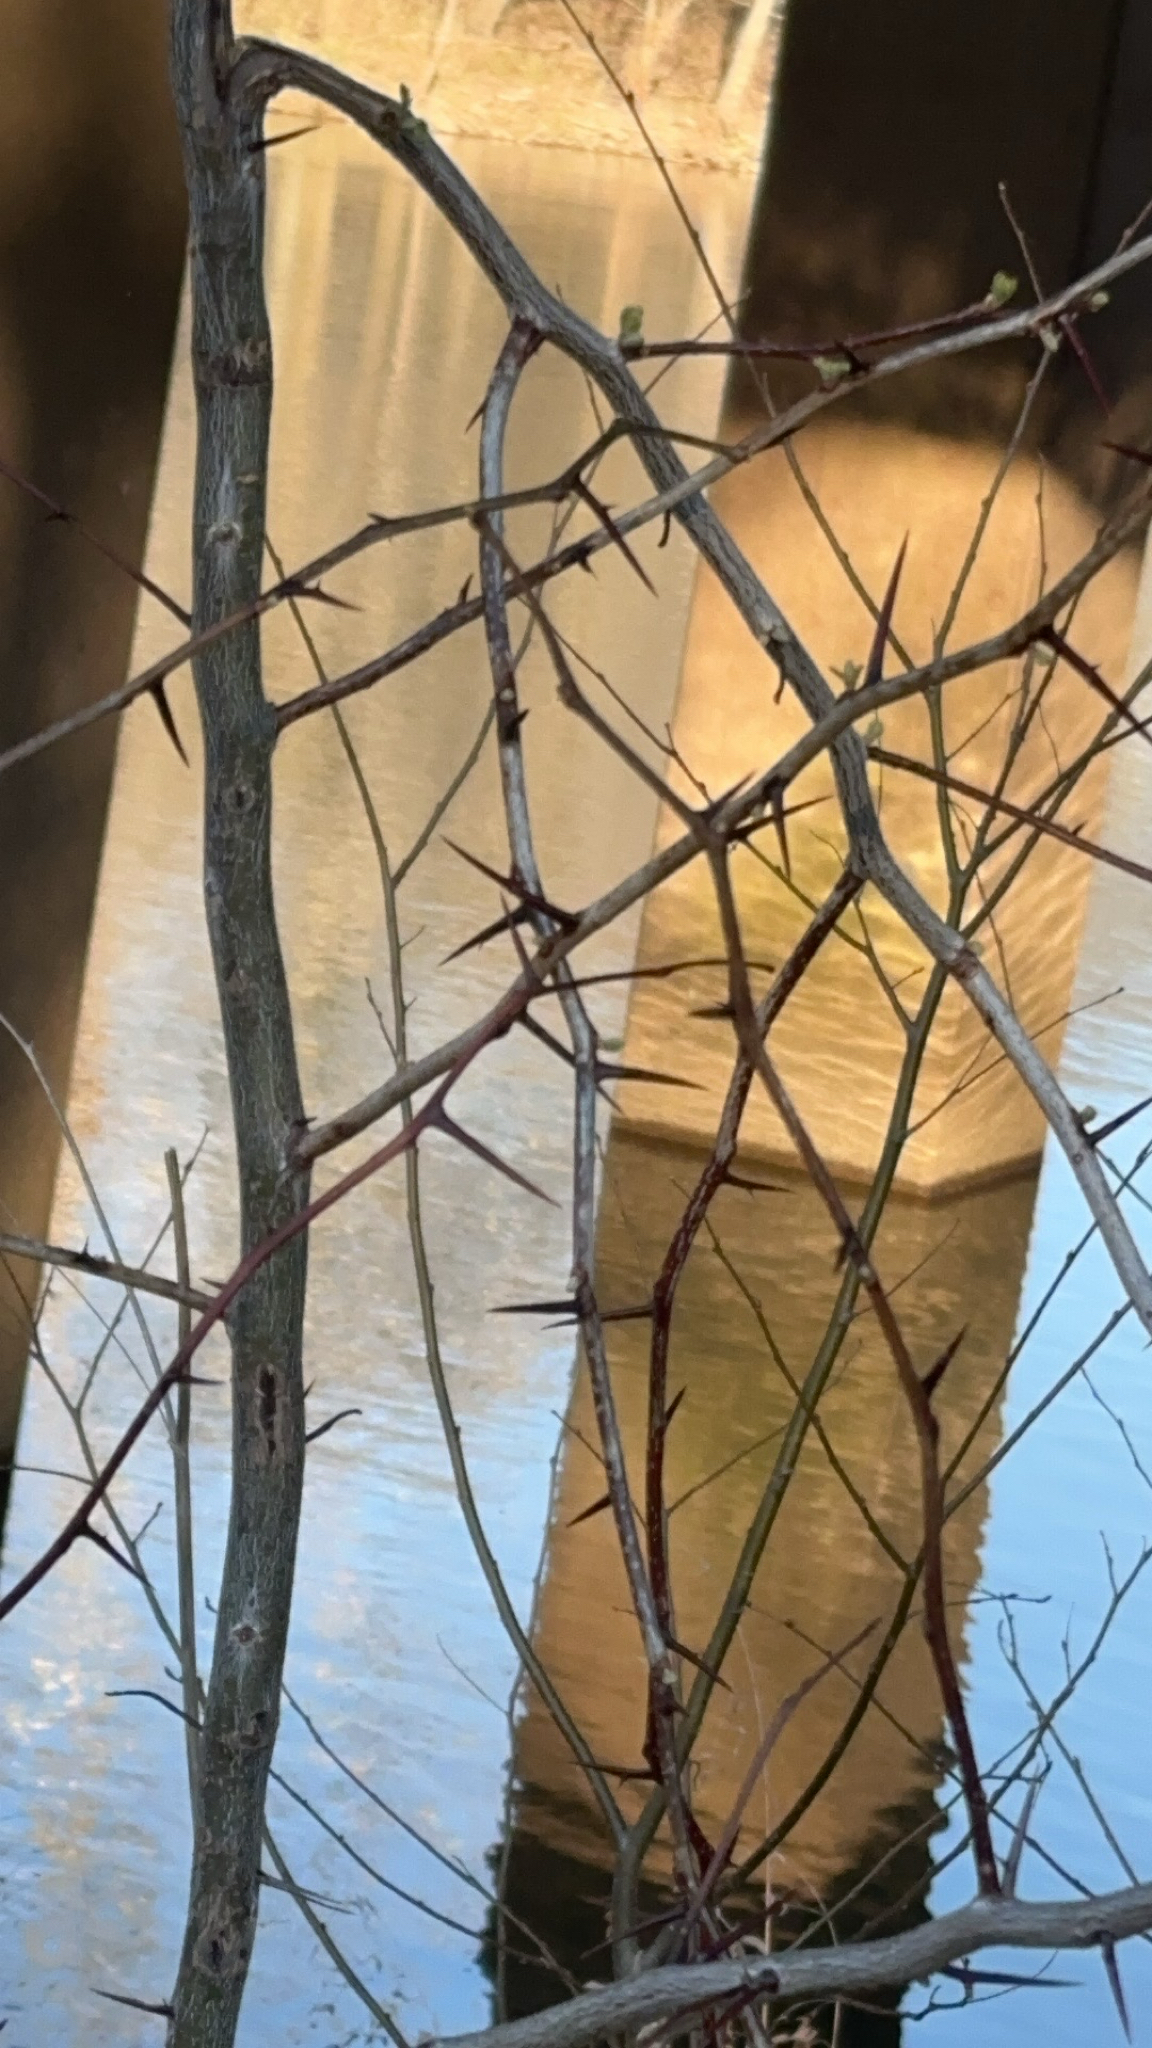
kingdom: Plantae
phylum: Tracheophyta
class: Magnoliopsida
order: Fabales
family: Fabaceae
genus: Gleditsia
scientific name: Gleditsia triacanthos
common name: Common honeylocust
